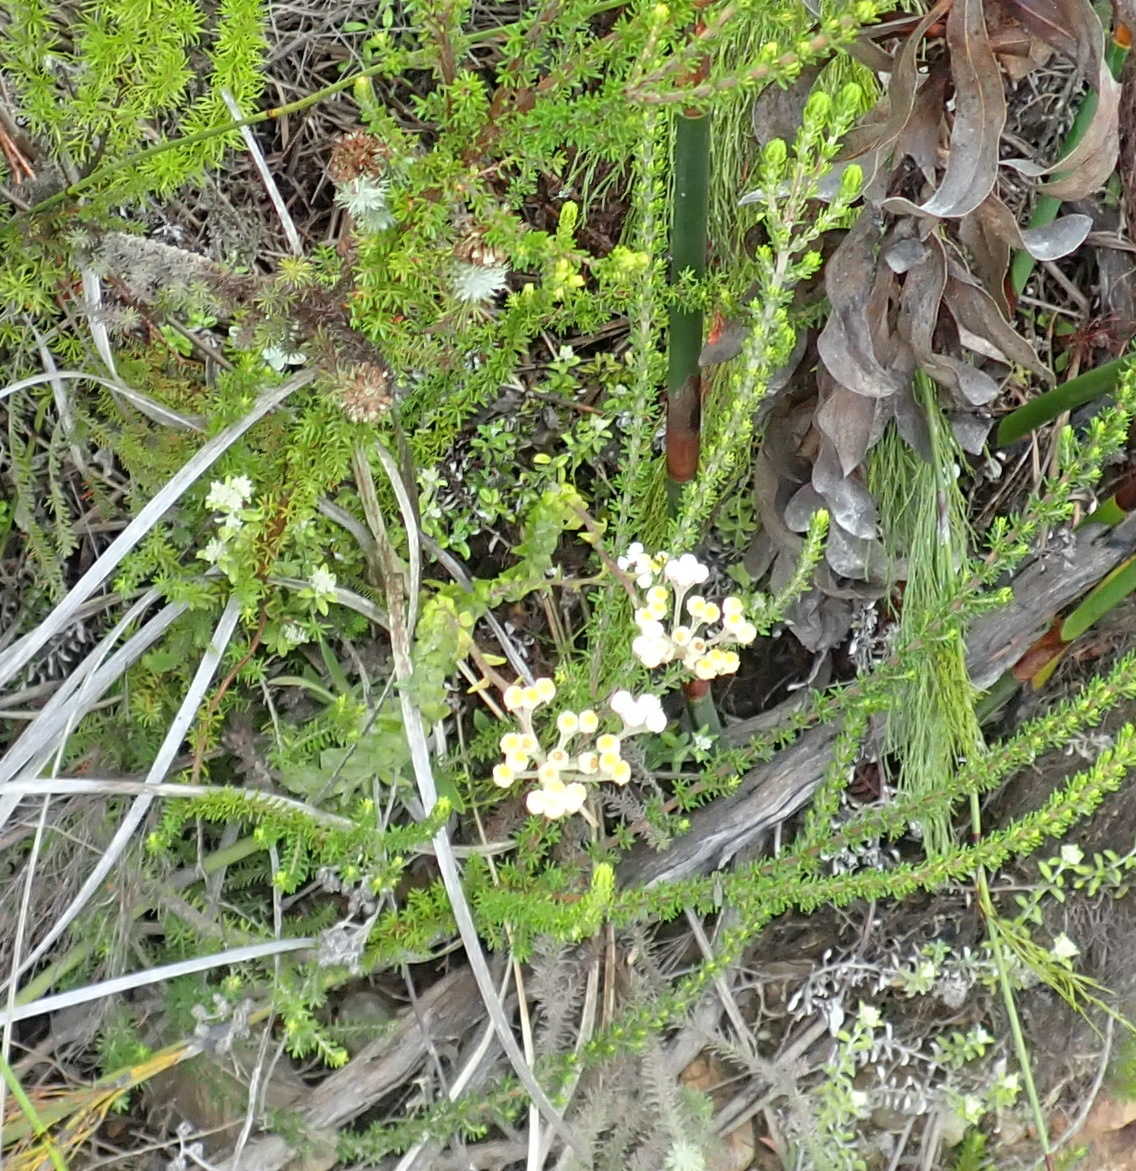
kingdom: Plantae
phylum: Tracheophyta
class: Magnoliopsida
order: Asterales
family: Asteraceae
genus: Helichrysum
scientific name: Helichrysum felinum
